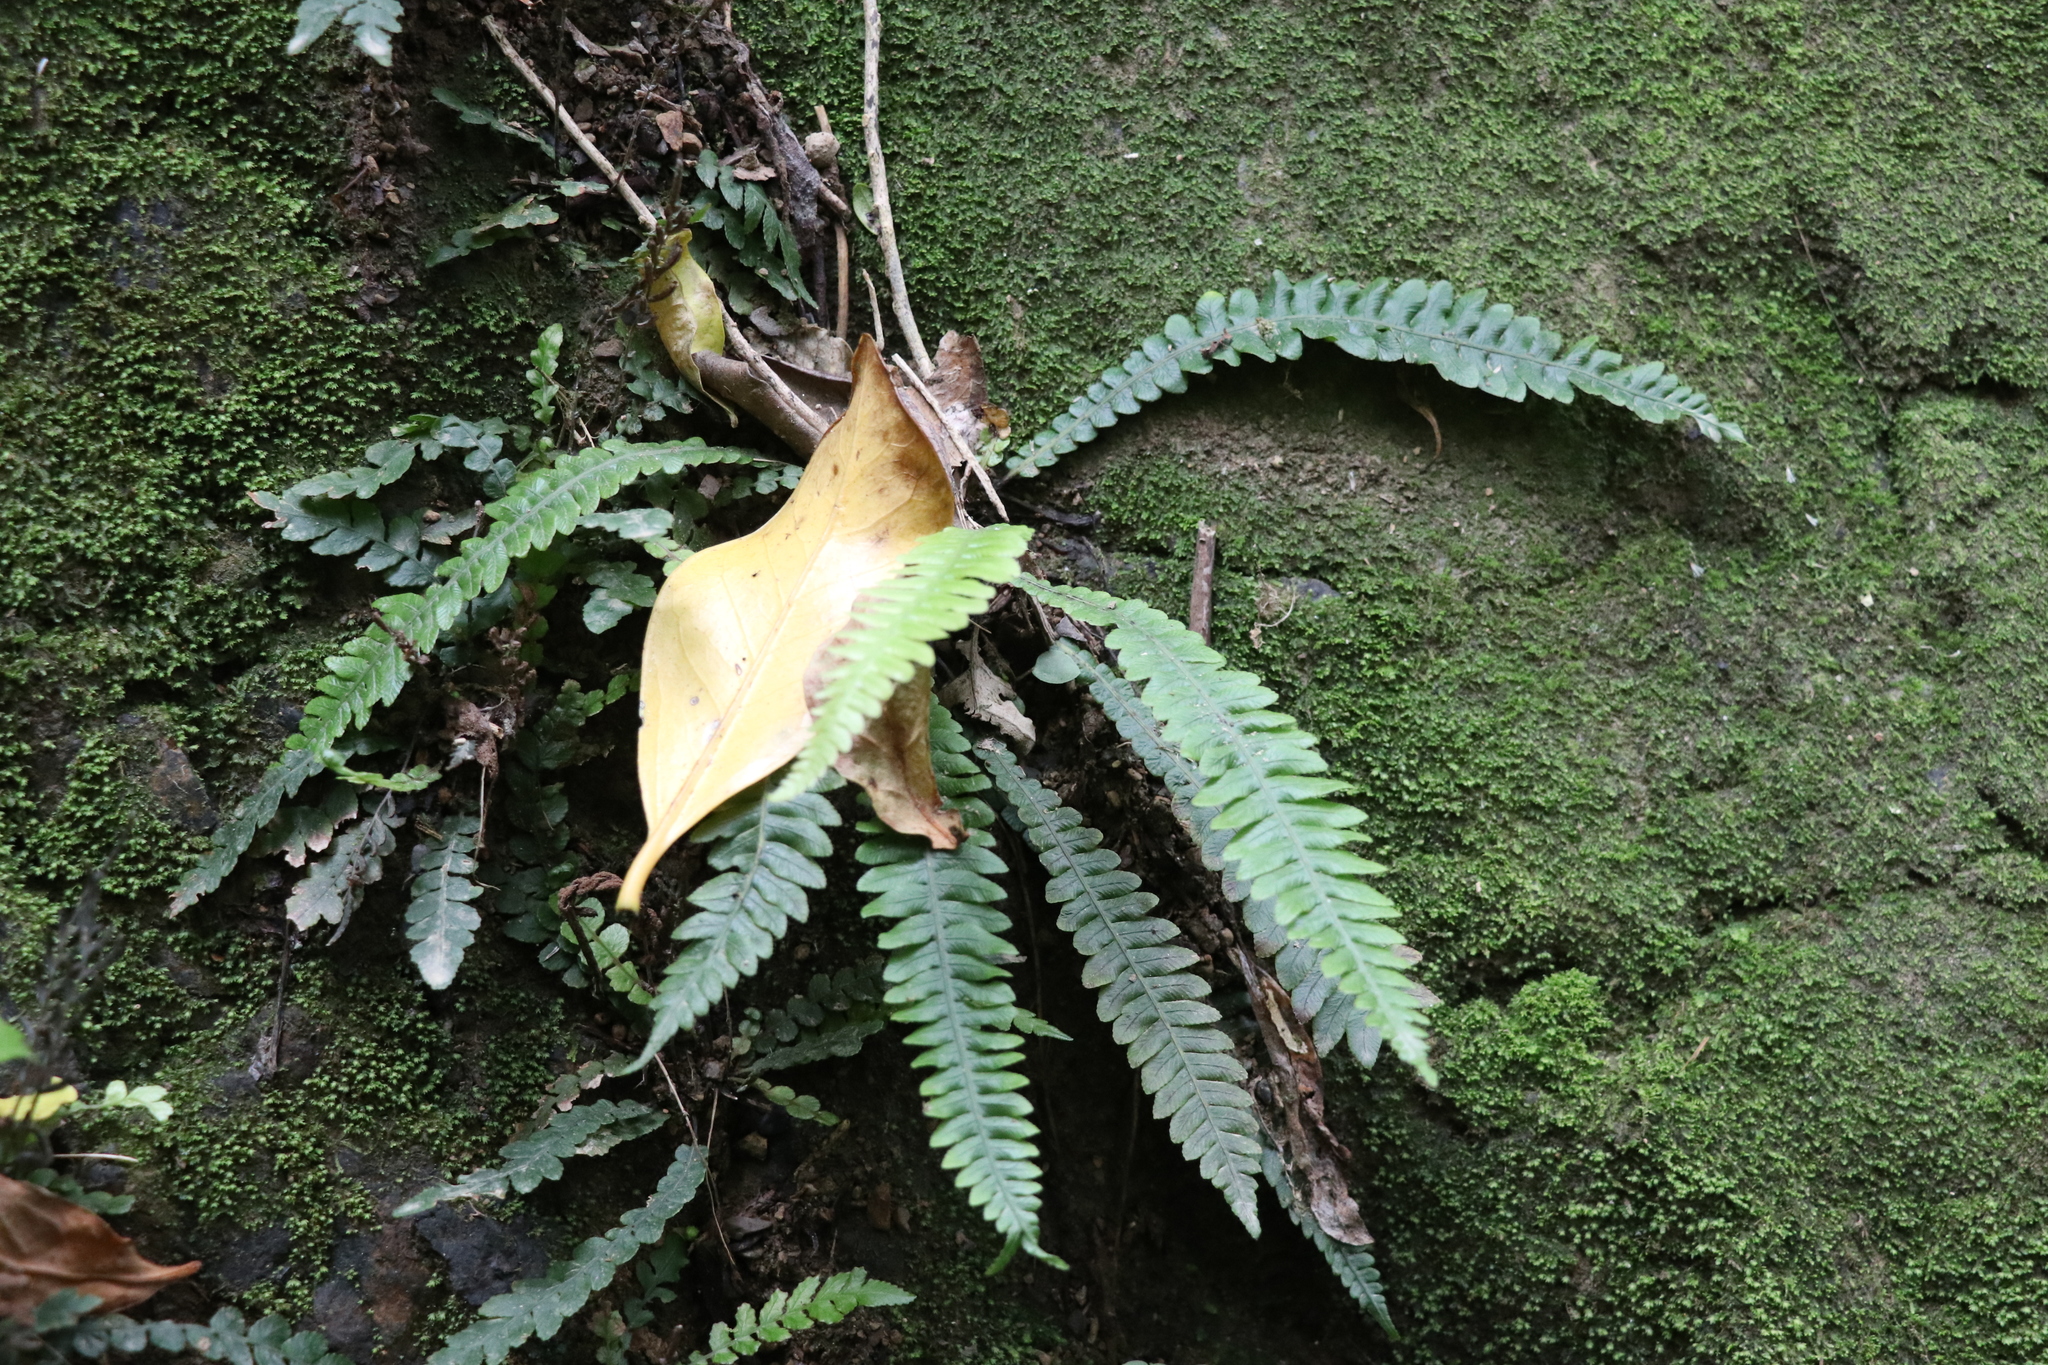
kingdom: Plantae
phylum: Tracheophyta
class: Polypodiopsida
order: Polypodiales
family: Blechnaceae
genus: Austroblechnum
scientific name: Austroblechnum lanceolatum
